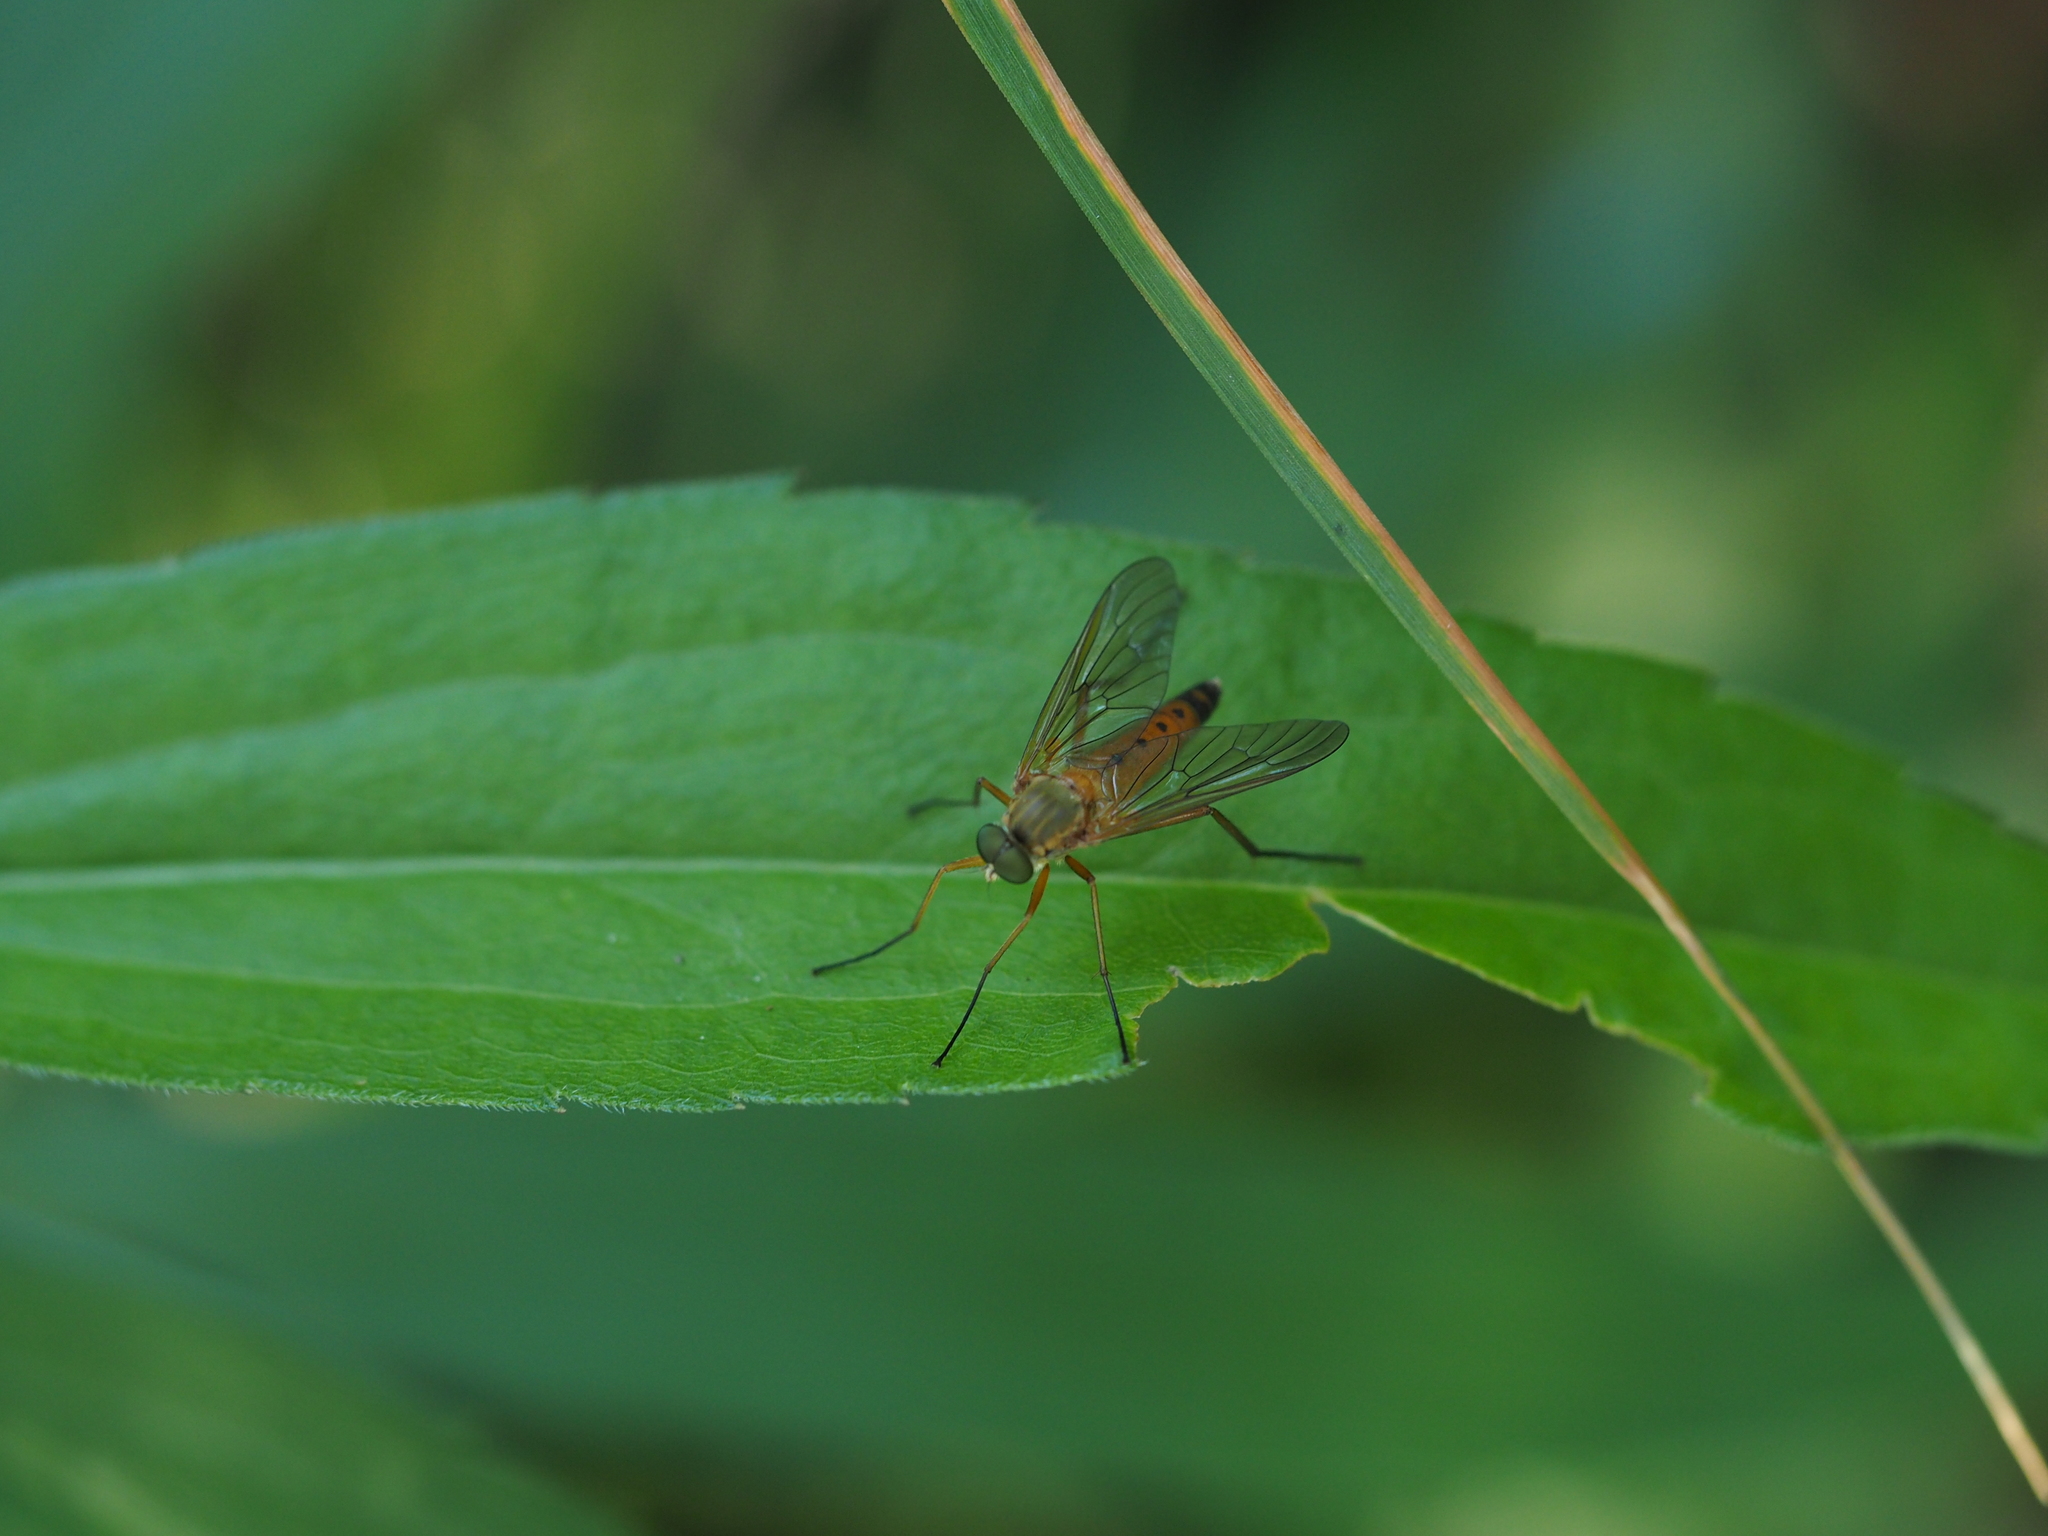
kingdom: Animalia
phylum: Arthropoda
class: Insecta
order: Diptera
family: Rhagionidae
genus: Rhagio
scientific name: Rhagio tringaria
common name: Marsh snipefly
